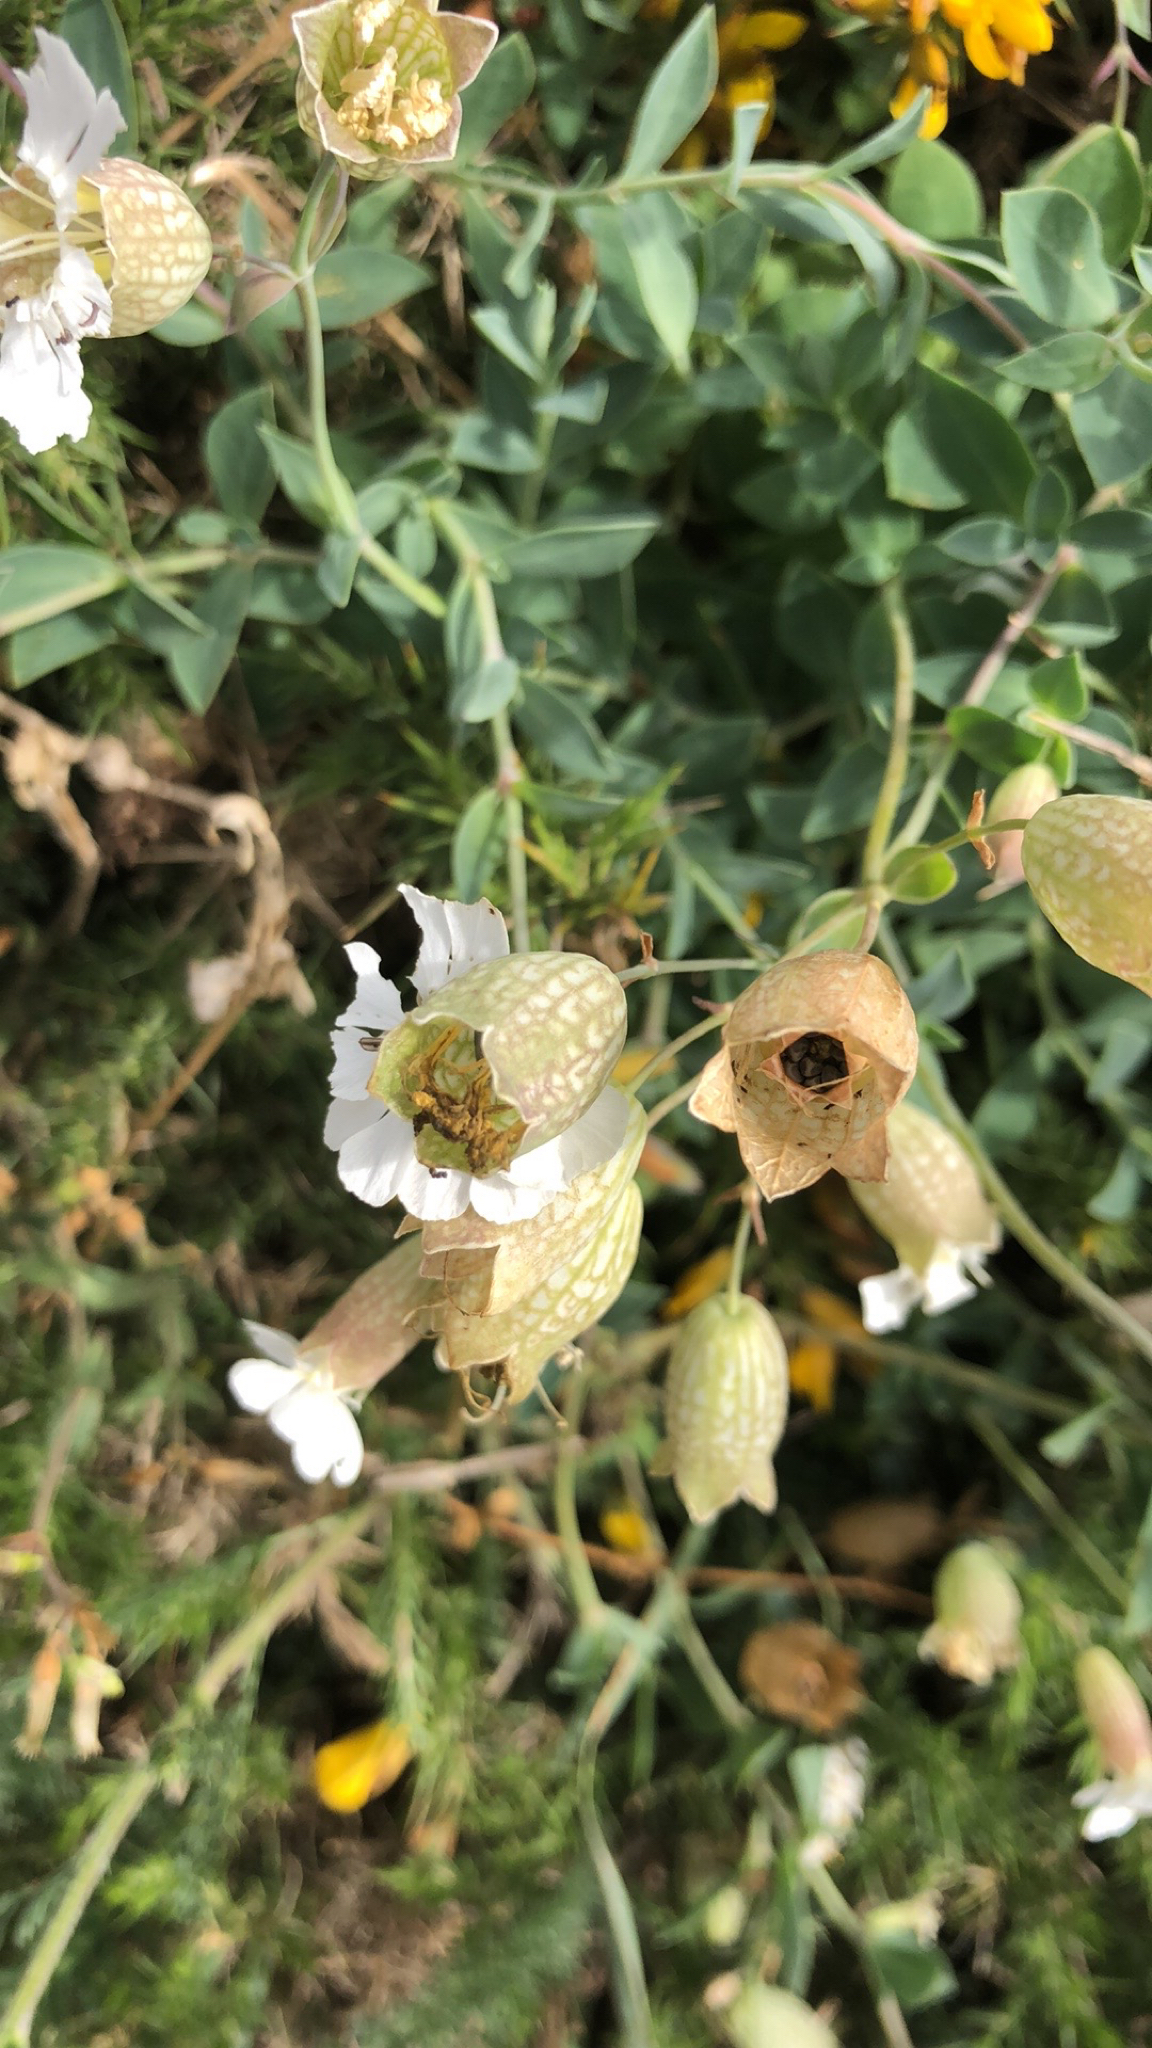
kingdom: Plantae
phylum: Tracheophyta
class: Magnoliopsida
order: Caryophyllales
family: Caryophyllaceae
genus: Silene
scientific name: Silene uniflora
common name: Sea campion
